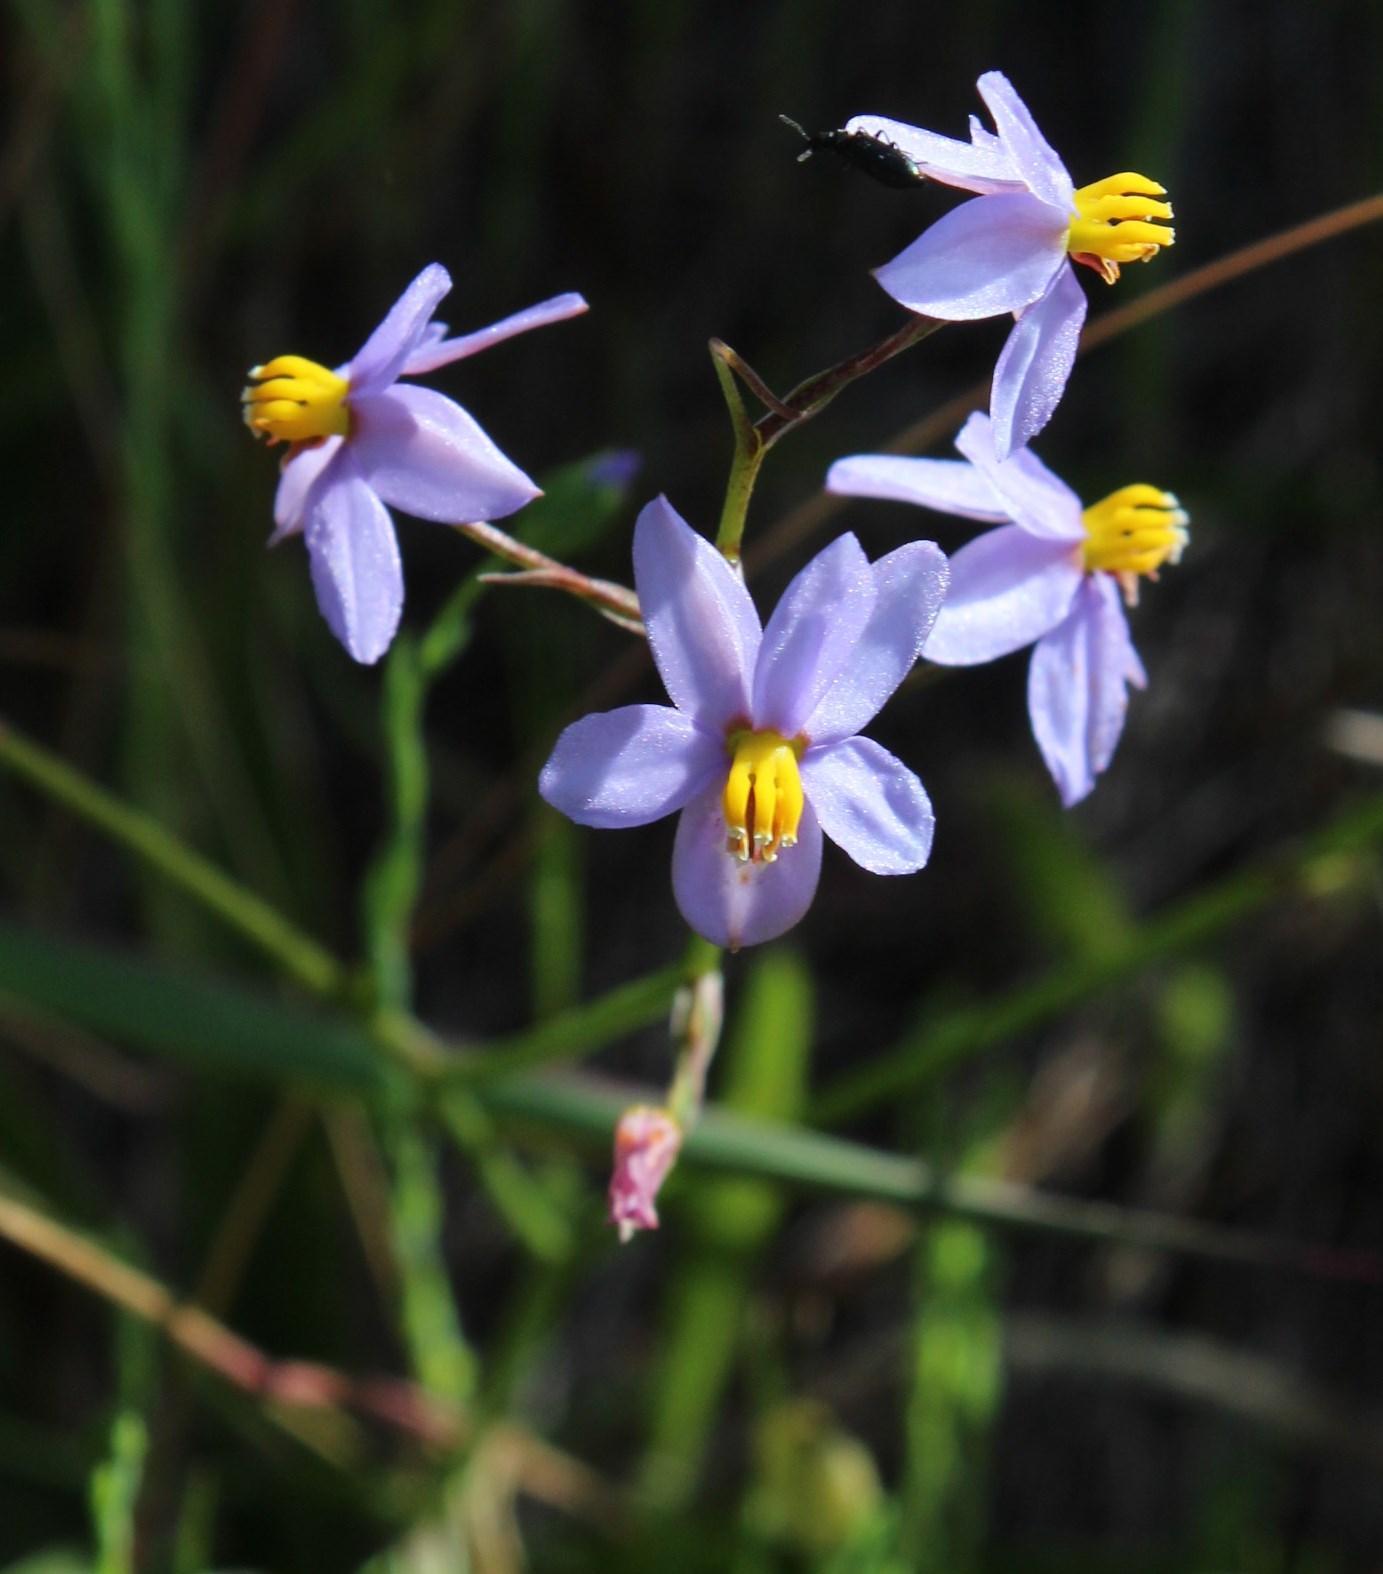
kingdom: Plantae
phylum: Tracheophyta
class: Liliopsida
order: Asparagales
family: Tecophilaeaceae
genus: Cyanella
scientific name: Cyanella hyacinthoides
